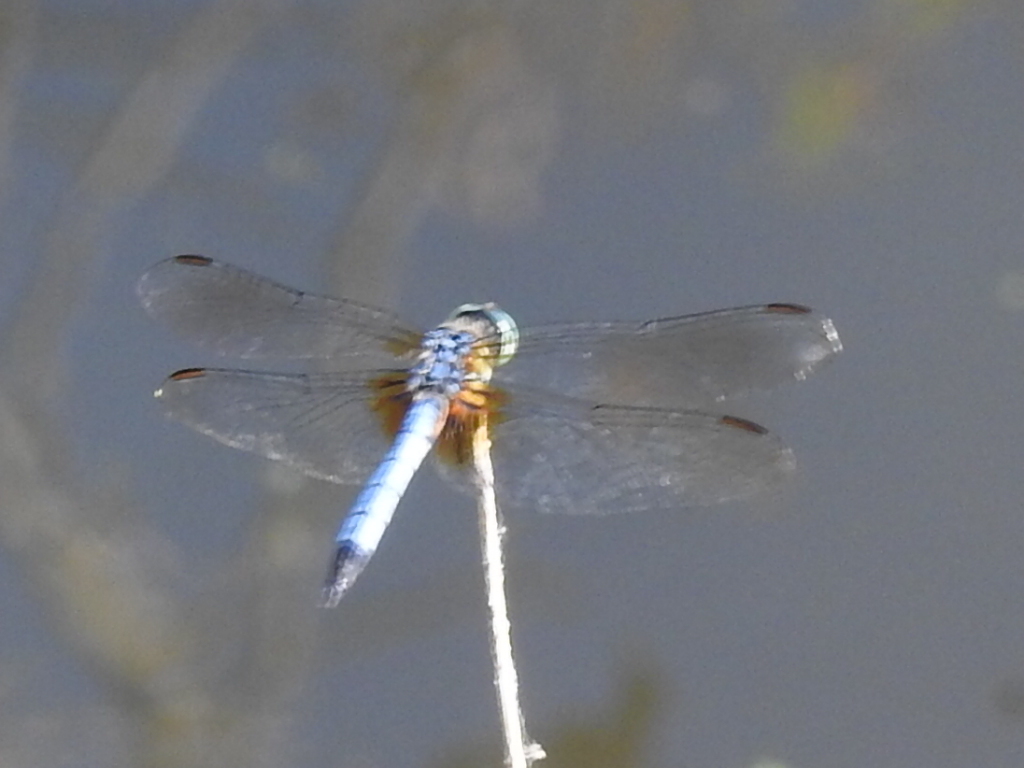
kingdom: Animalia
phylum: Arthropoda
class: Insecta
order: Odonata
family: Libellulidae
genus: Pachydiplax
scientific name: Pachydiplax longipennis
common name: Blue dasher
